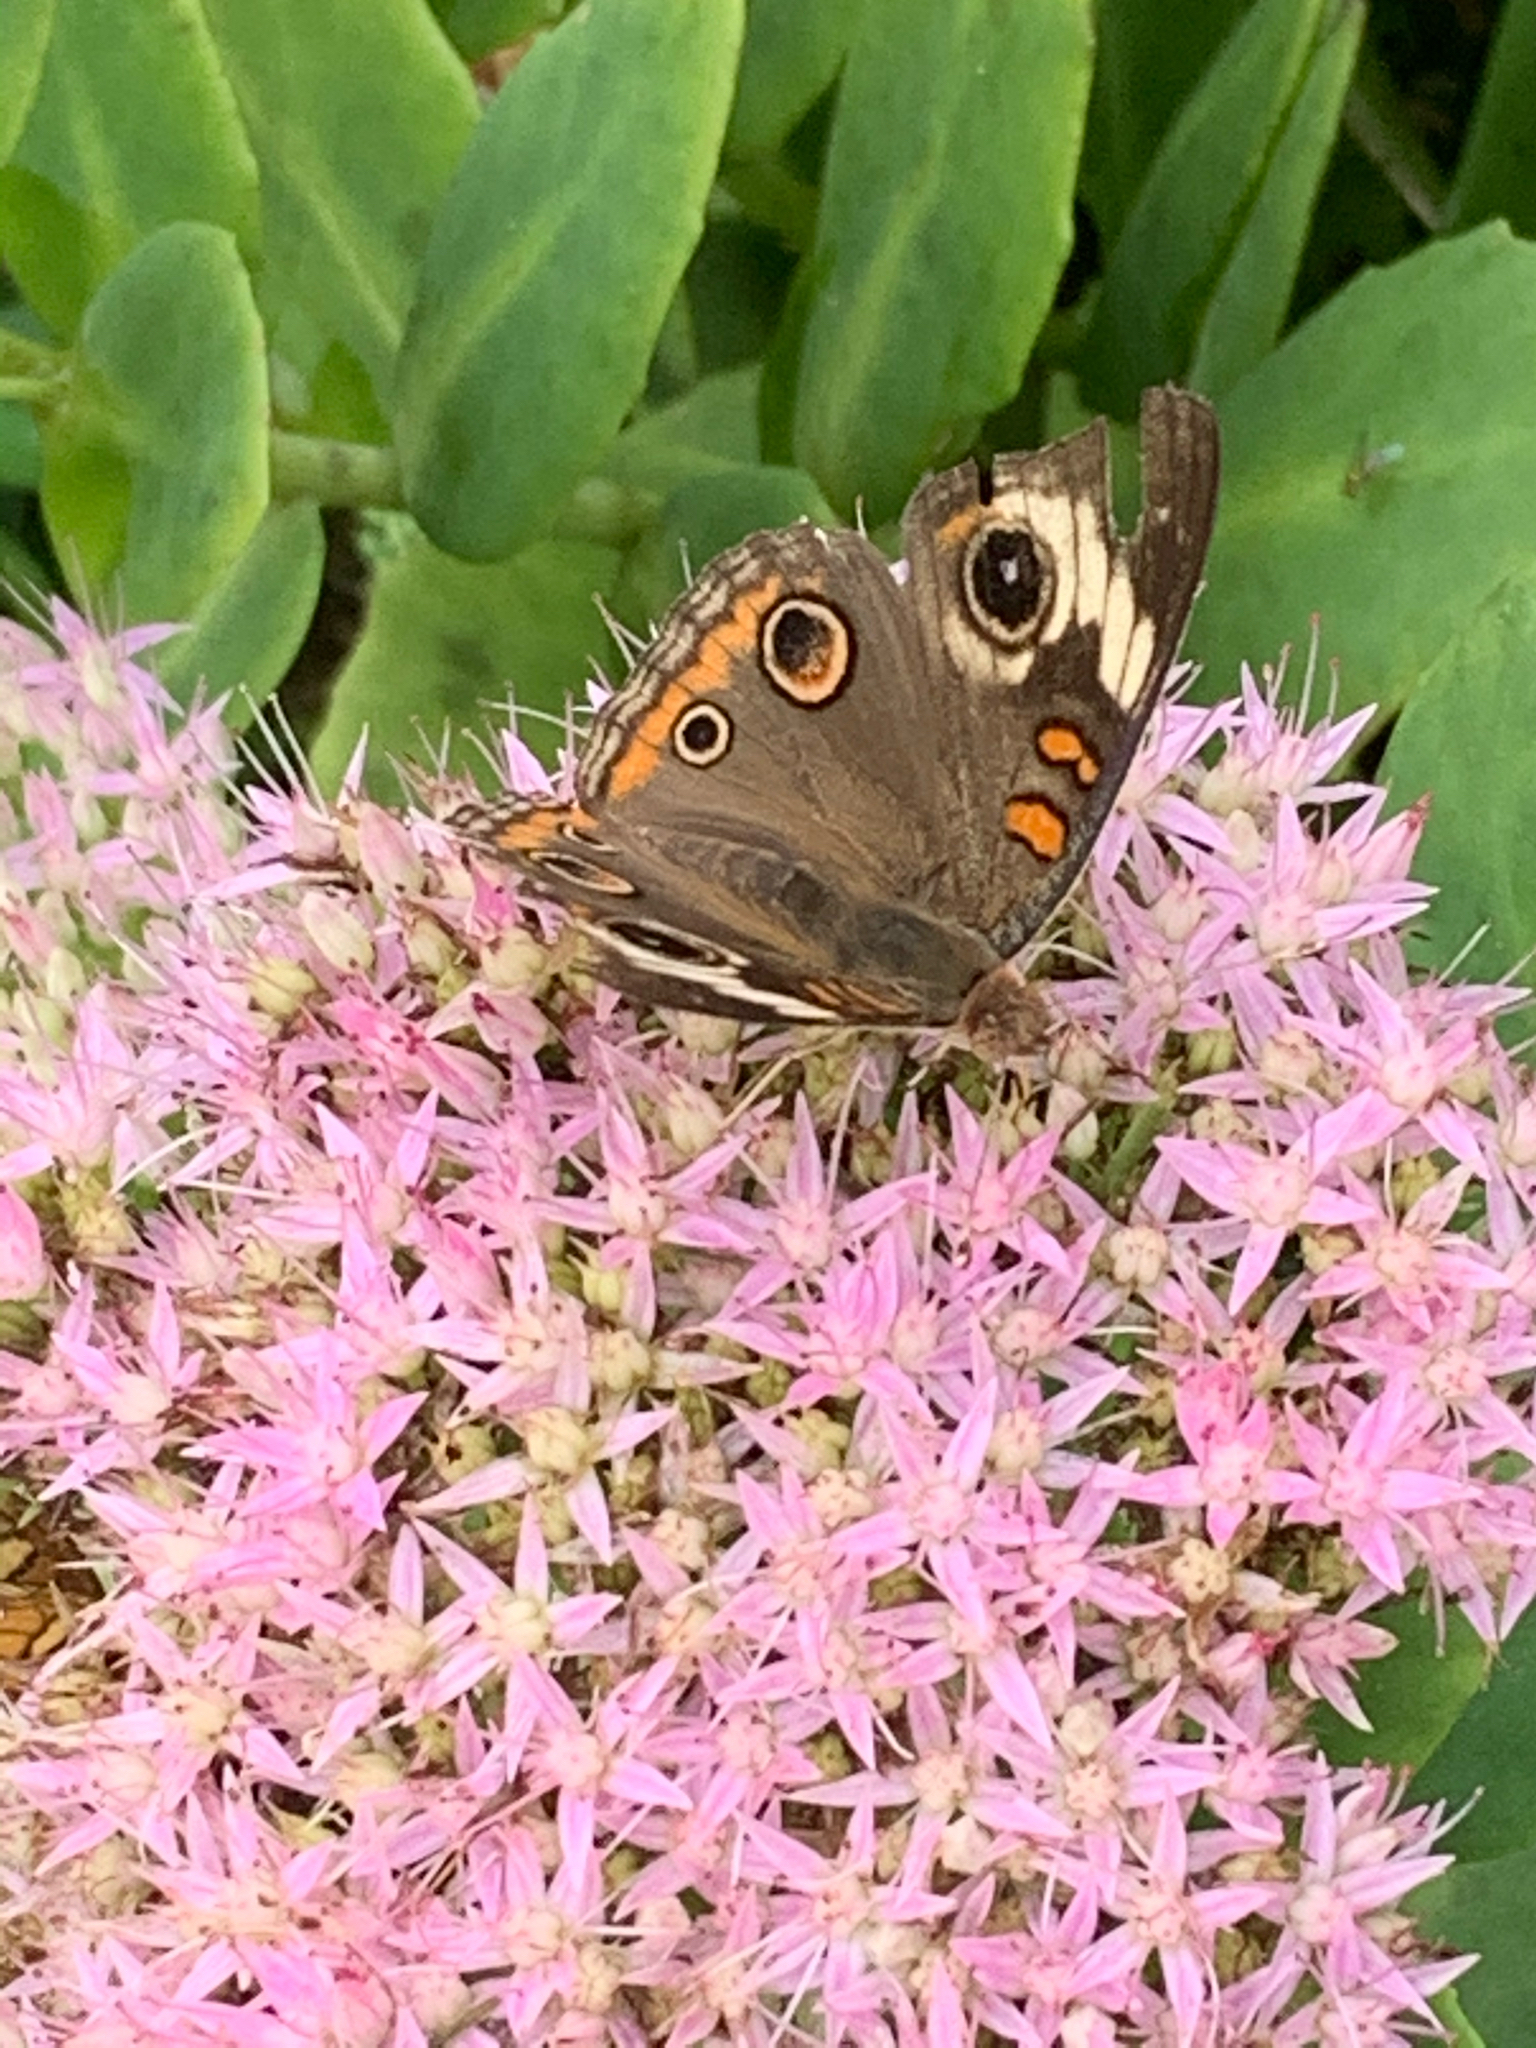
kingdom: Animalia
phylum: Arthropoda
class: Insecta
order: Lepidoptera
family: Nymphalidae
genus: Junonia
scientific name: Junonia coenia
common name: Common buckeye
